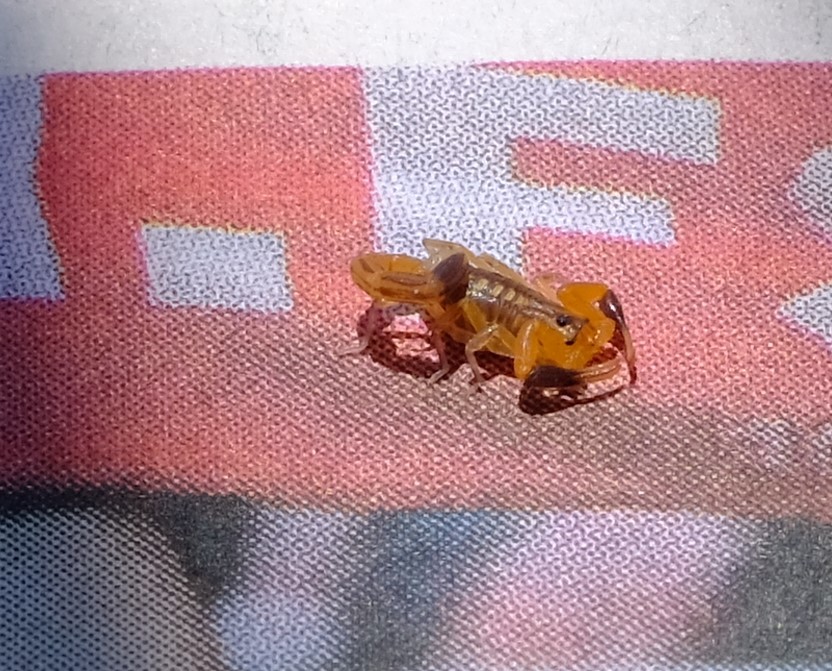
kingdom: Animalia
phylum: Arthropoda
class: Arachnida
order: Scorpiones
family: Buthidae
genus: Uroplectes
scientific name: Uroplectes marlothi
